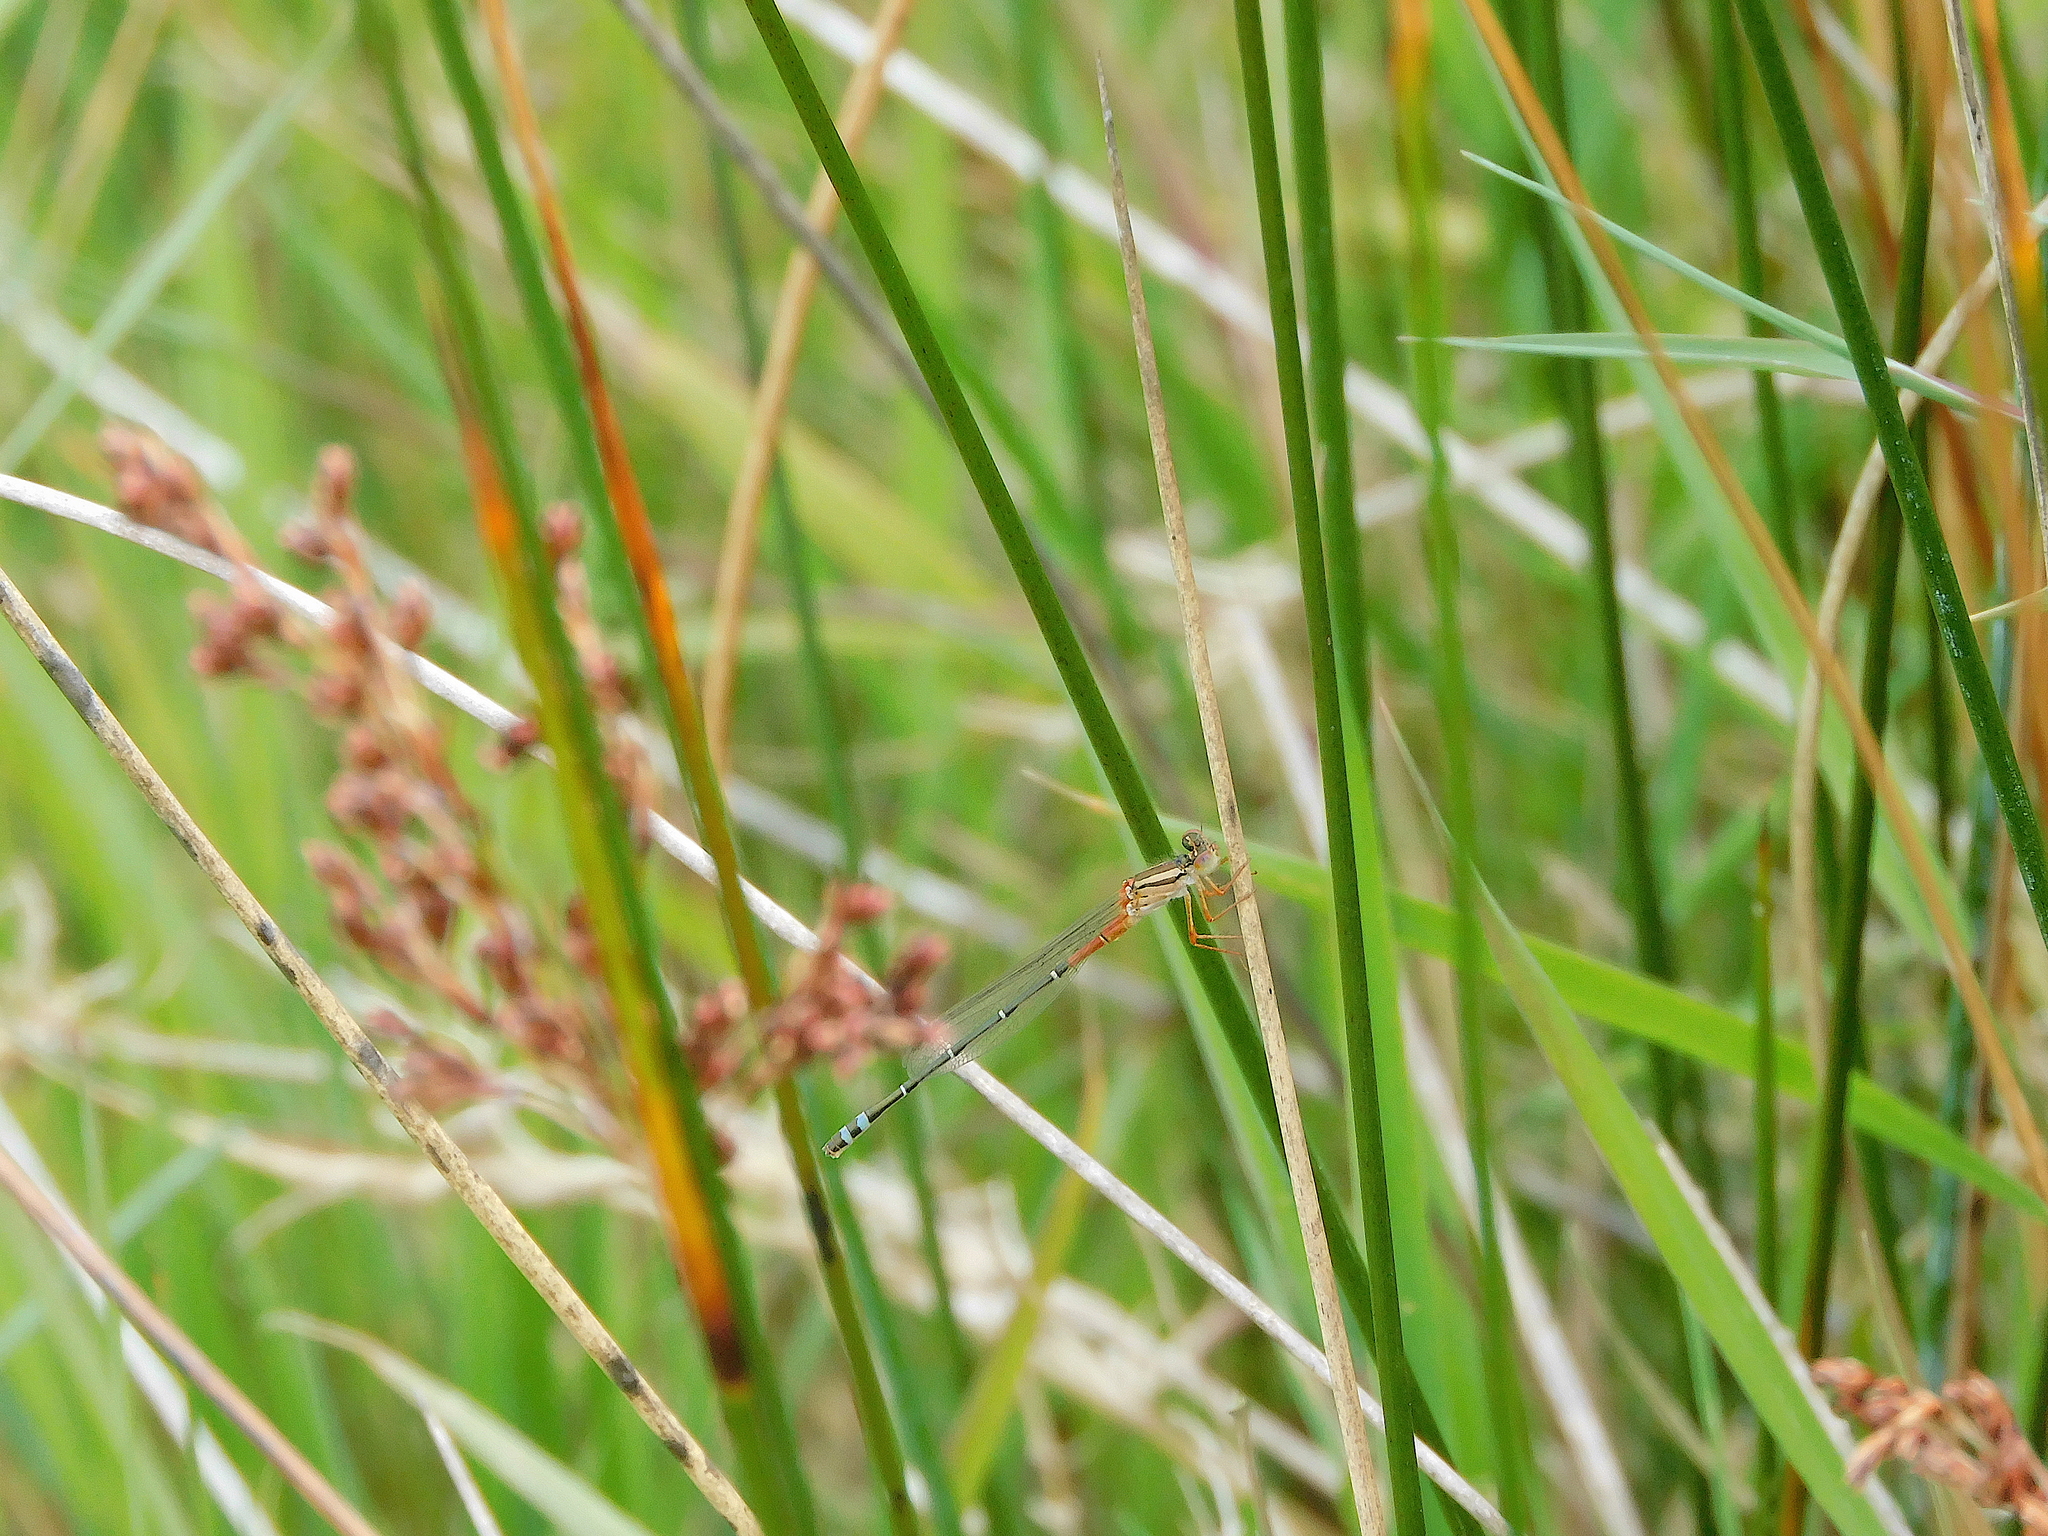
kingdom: Animalia
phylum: Arthropoda
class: Insecta
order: Odonata
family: Coenagrionidae
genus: Xanthagrion
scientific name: Xanthagrion erythroneurum
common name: Red and blue damsel
